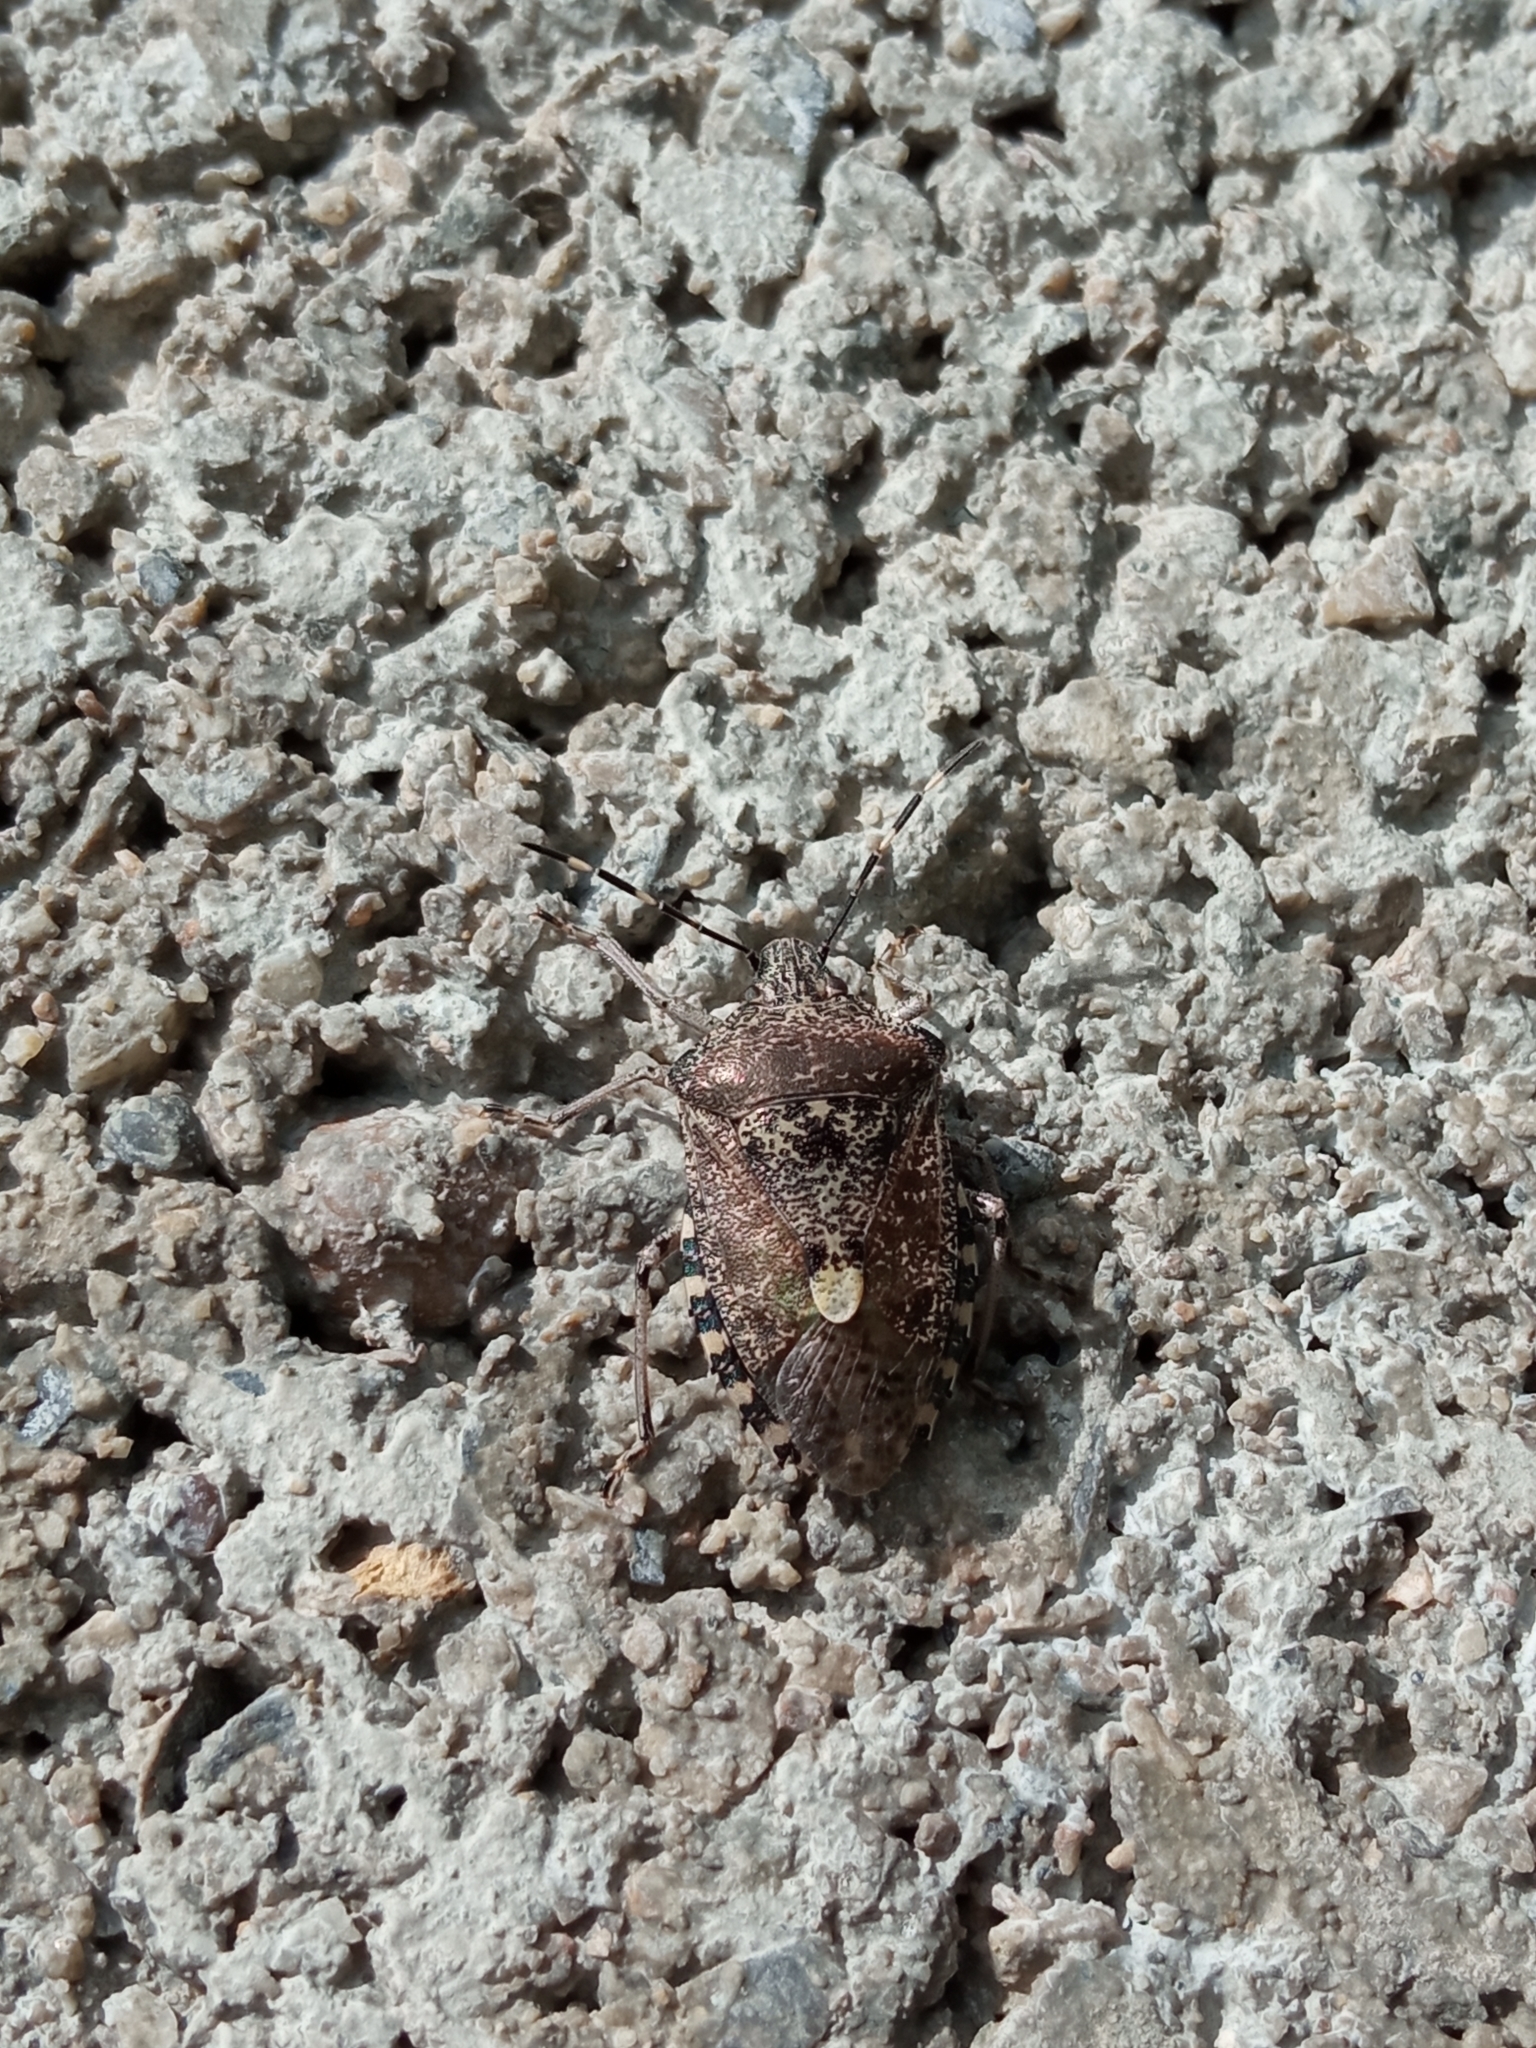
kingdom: Animalia
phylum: Arthropoda
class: Insecta
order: Hemiptera
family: Pentatomidae
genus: Rhaphigaster
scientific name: Rhaphigaster nebulosa
